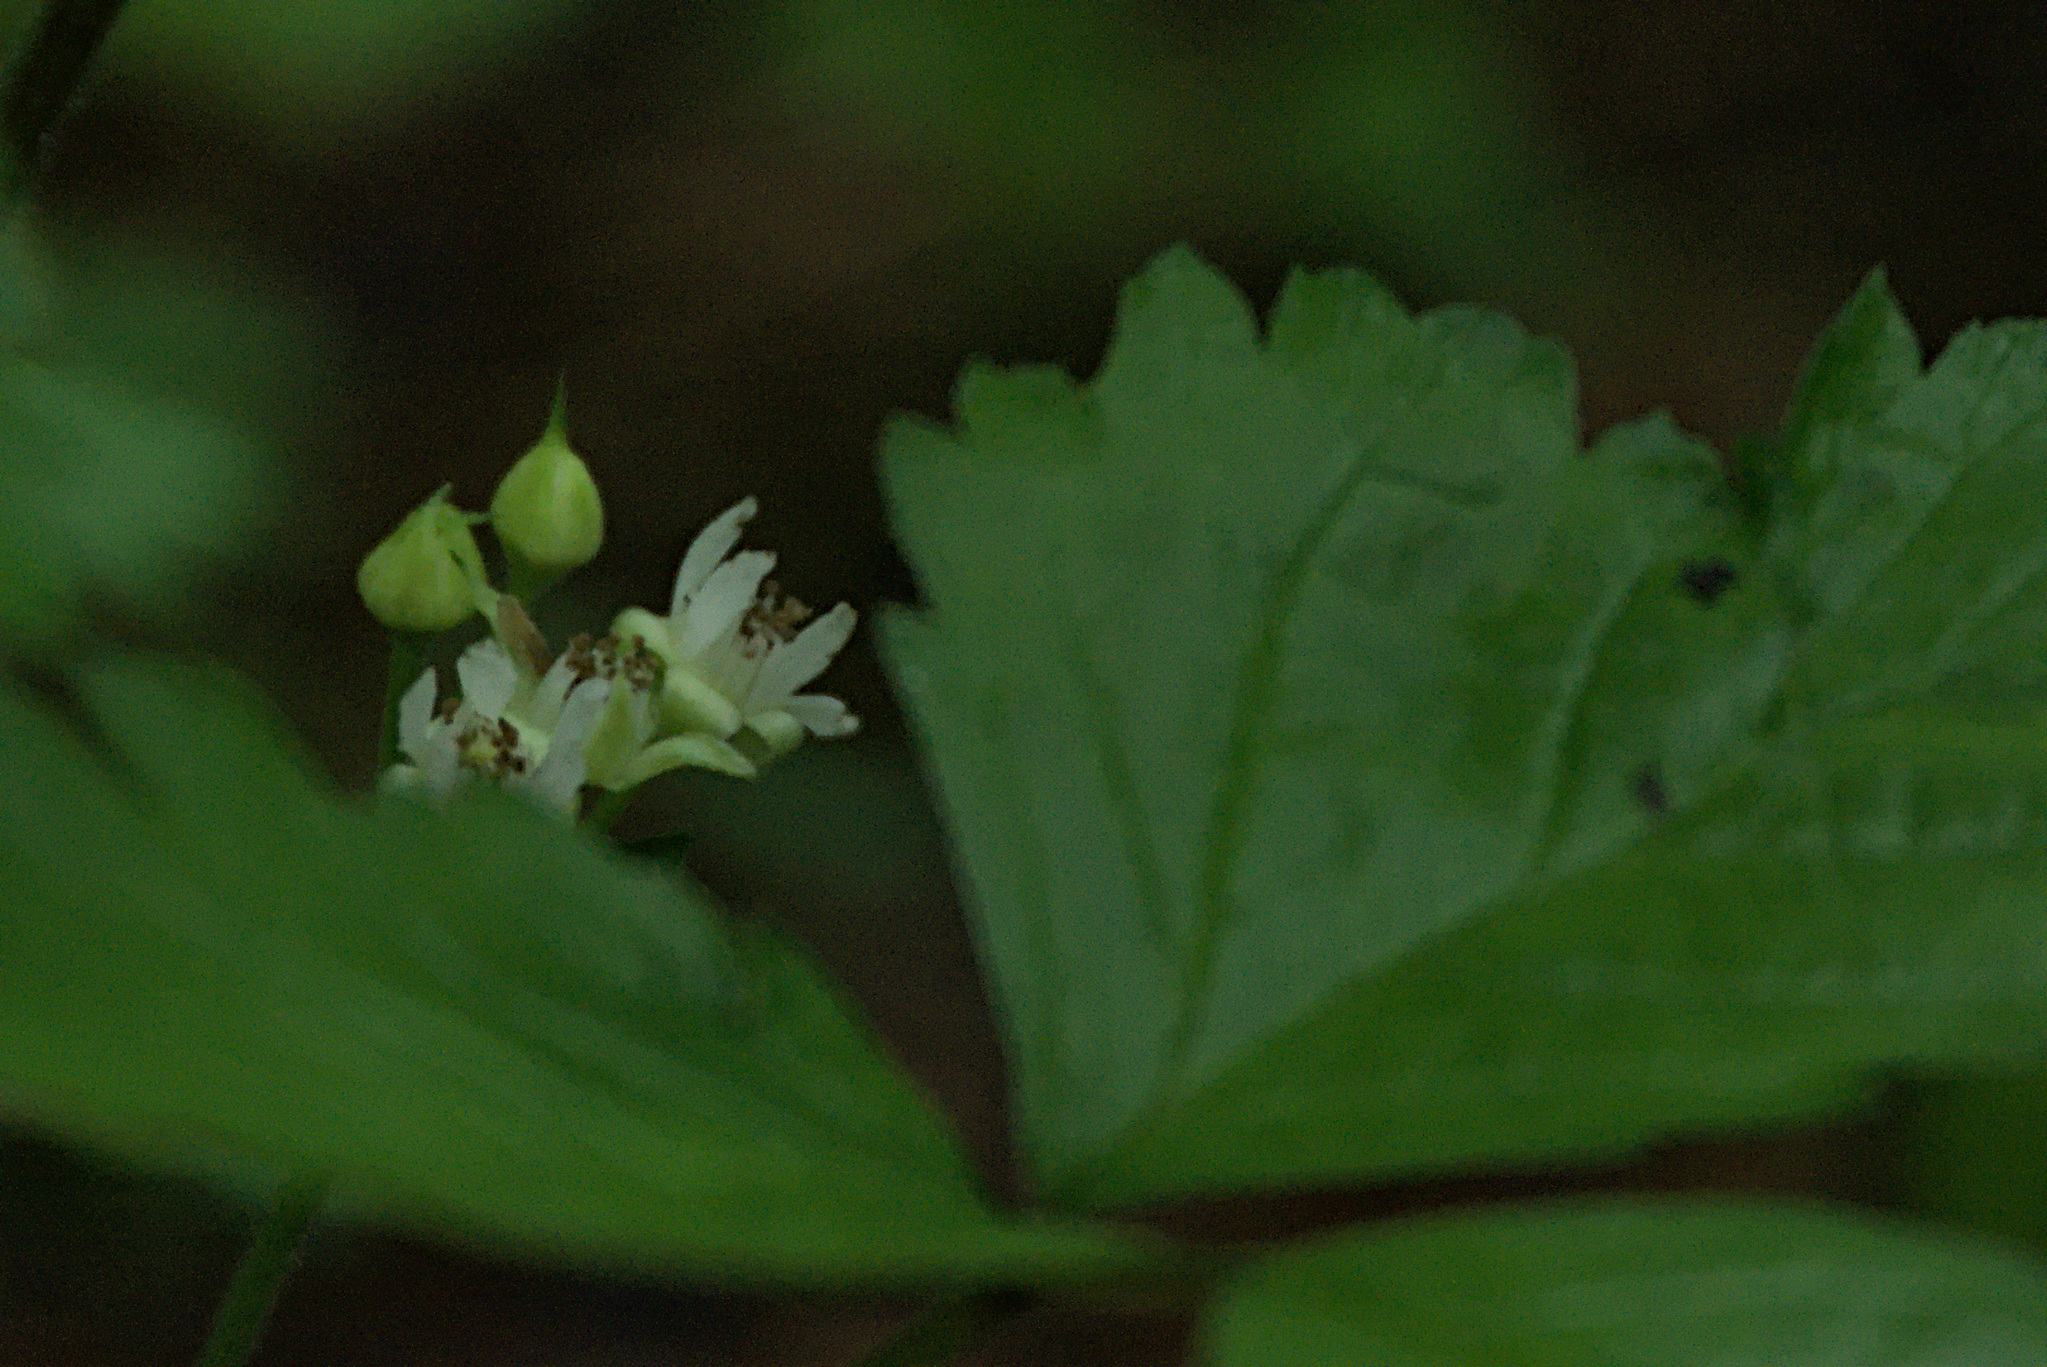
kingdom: Plantae
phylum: Tracheophyta
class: Magnoliopsida
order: Rosales
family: Rosaceae
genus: Rubus
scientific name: Rubus saxatilis
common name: Stone bramble
